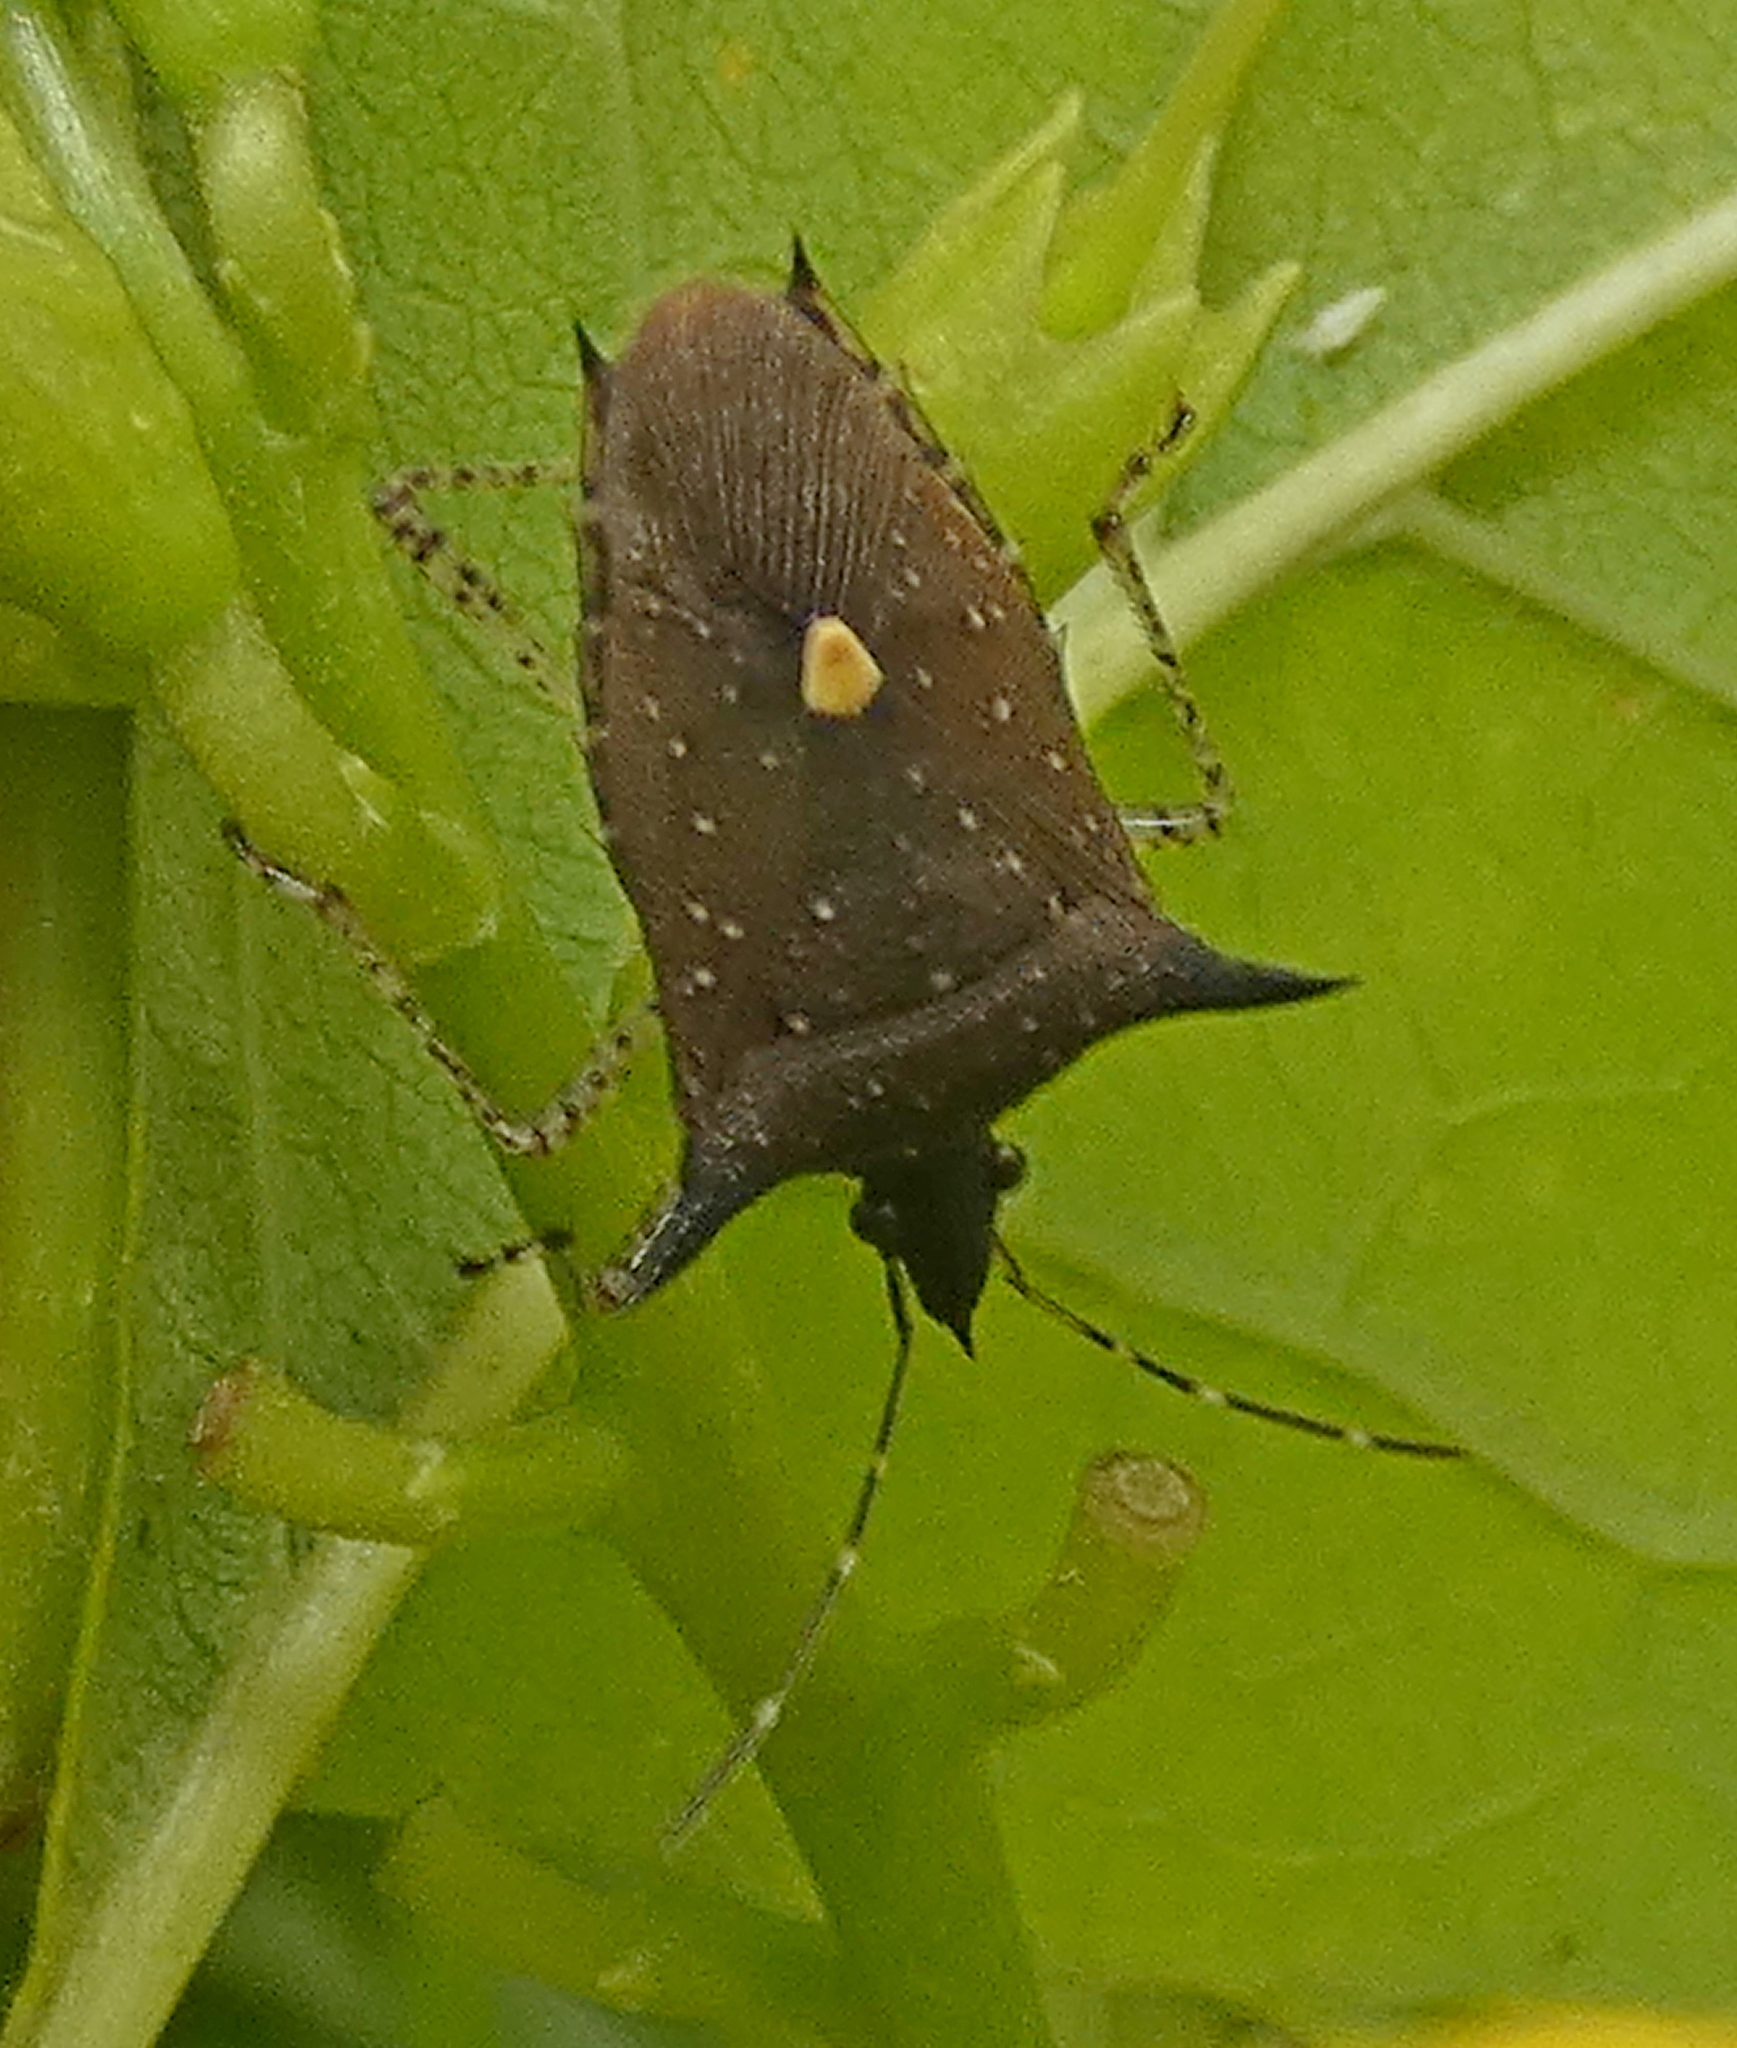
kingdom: Animalia
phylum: Arthropoda
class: Insecta
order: Hemiptera
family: Pentatomidae
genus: Proxys
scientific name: Proxys albopunctulatus
